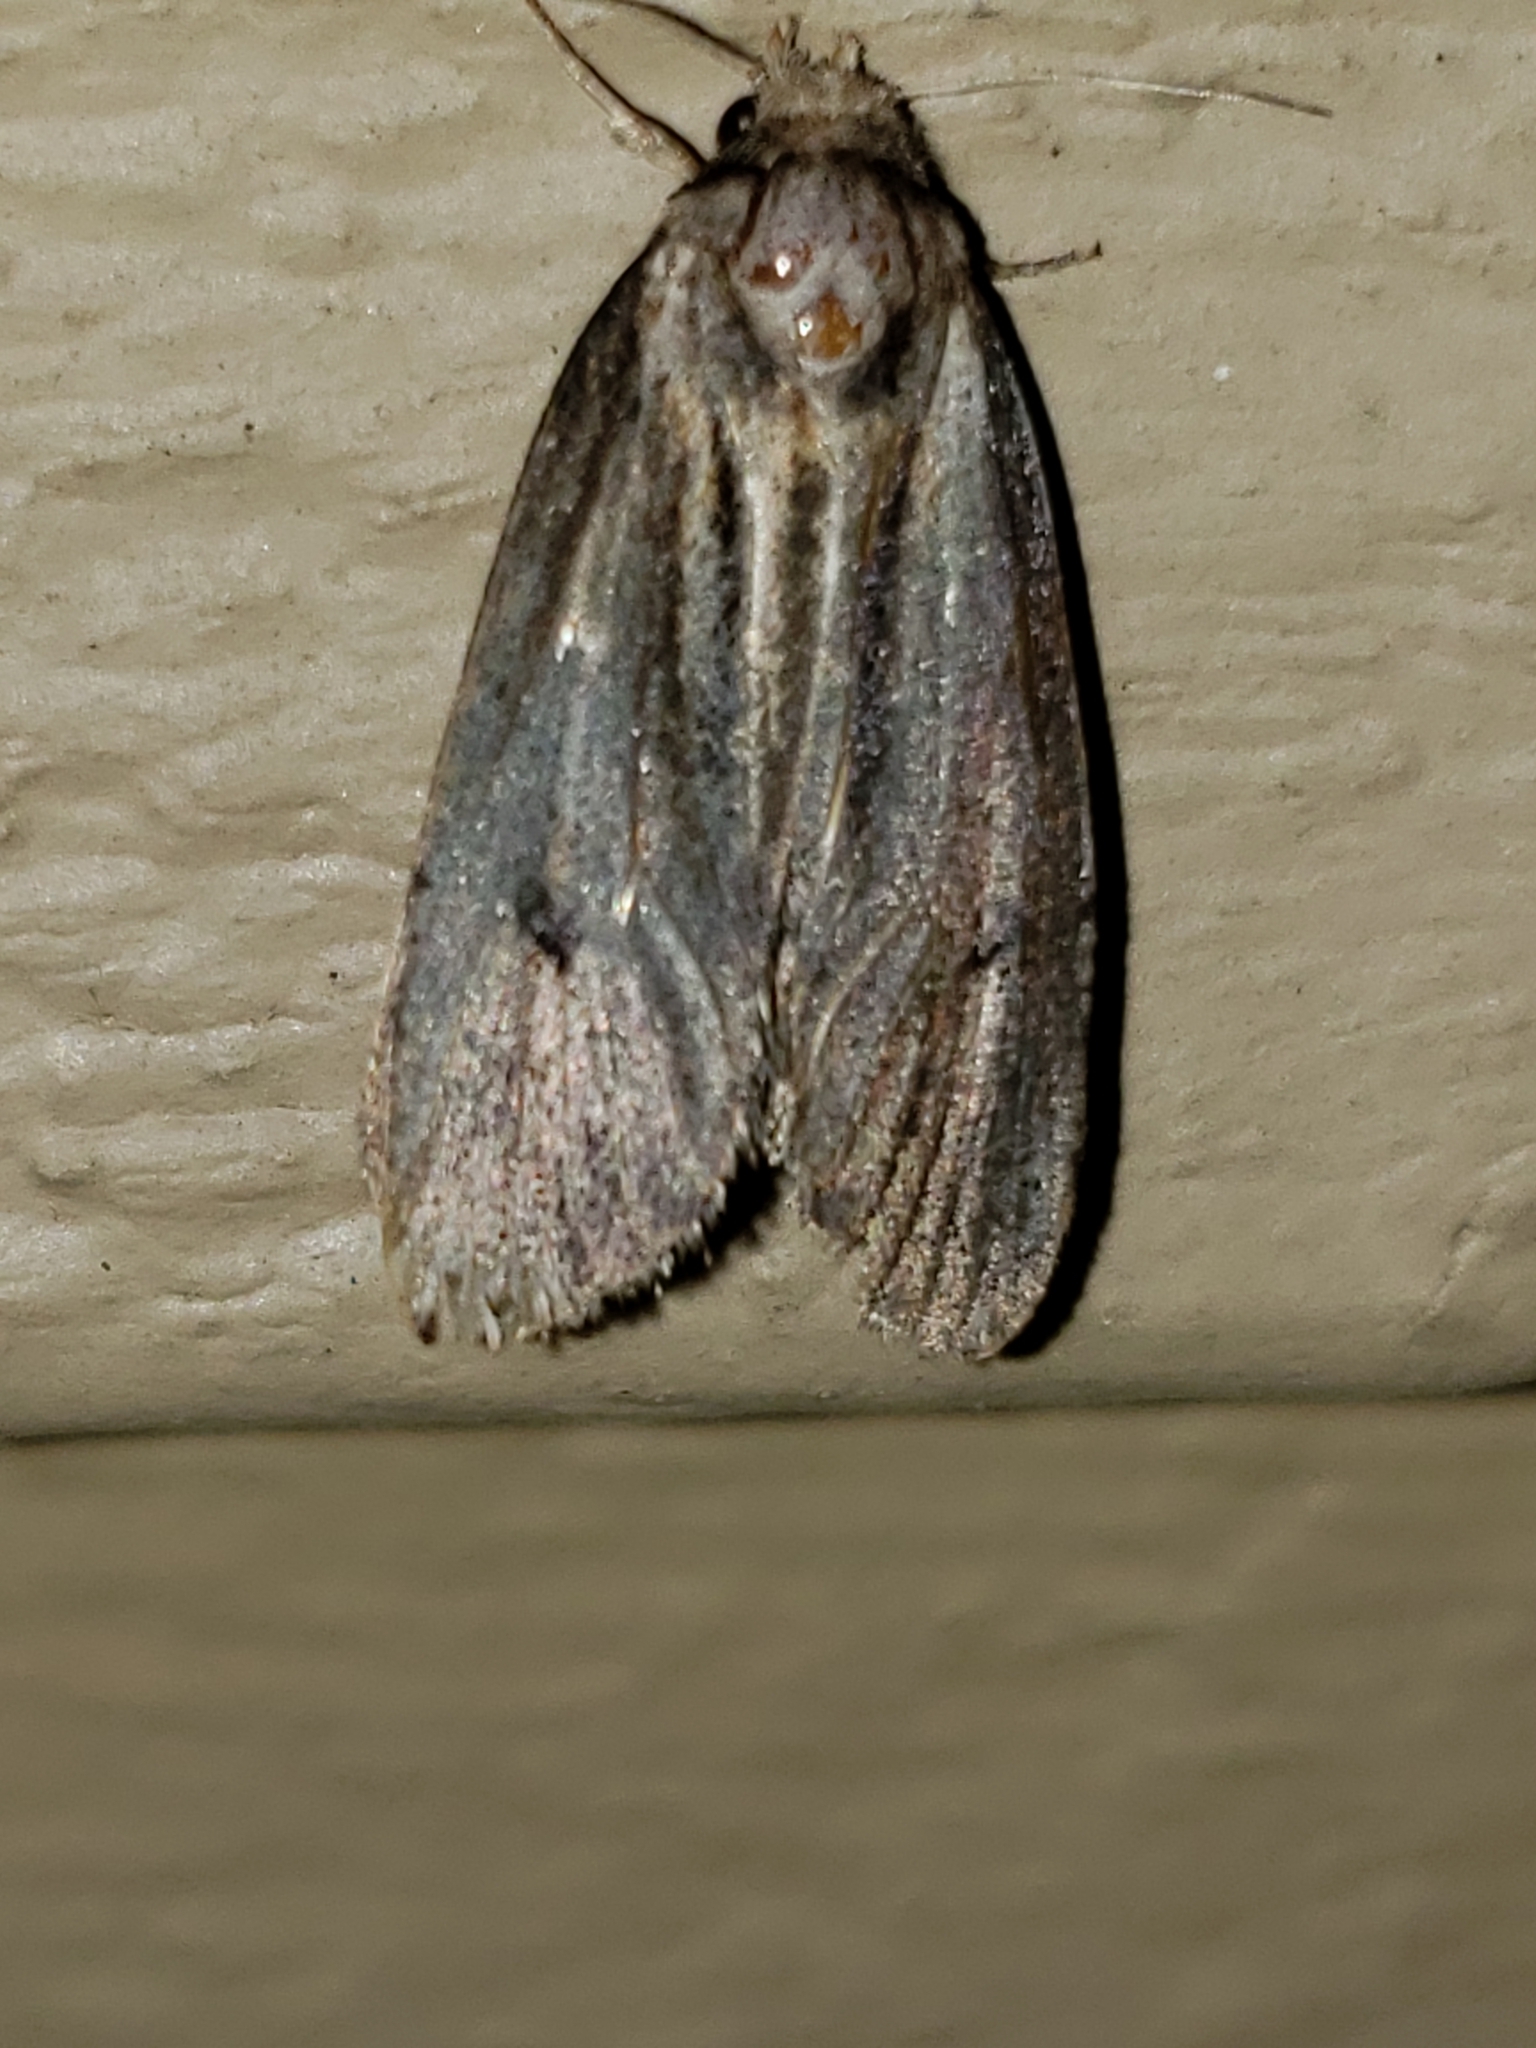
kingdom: Animalia
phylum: Arthropoda
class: Insecta
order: Lepidoptera
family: Tineidae
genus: Acrolophus
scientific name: Acrolophus popeanella
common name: Clemens' grass tubeworm moth
